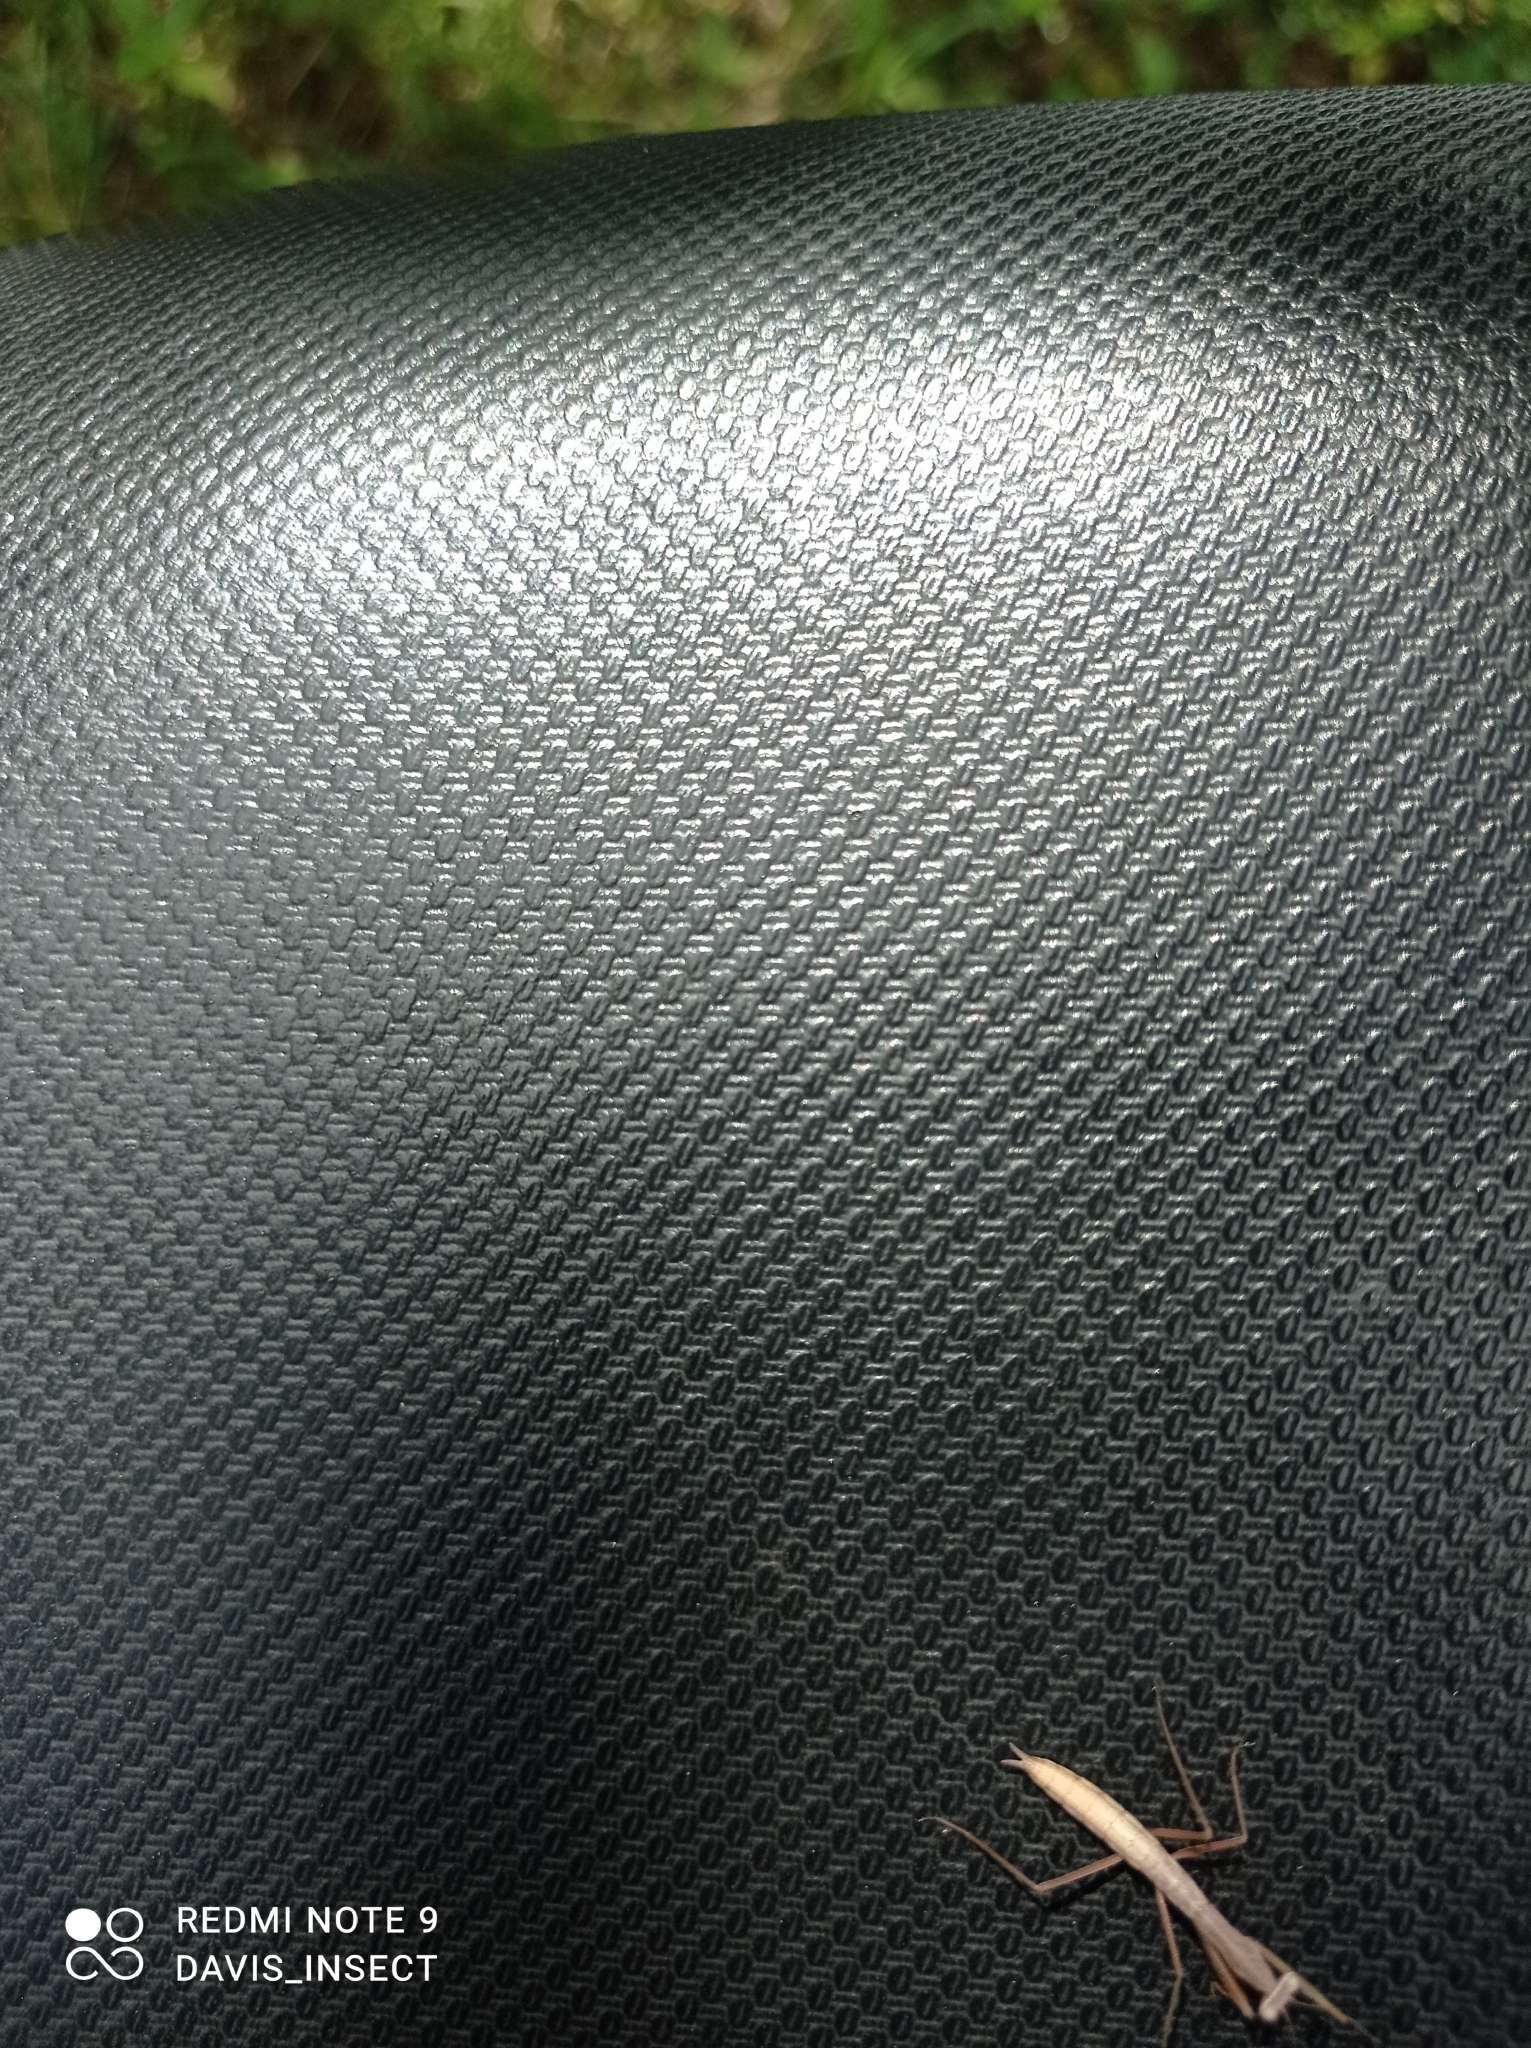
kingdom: Animalia
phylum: Arthropoda
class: Insecta
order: Mantodea
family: Mantidae
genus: Mantis
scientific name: Mantis religiosa
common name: Praying mantis
